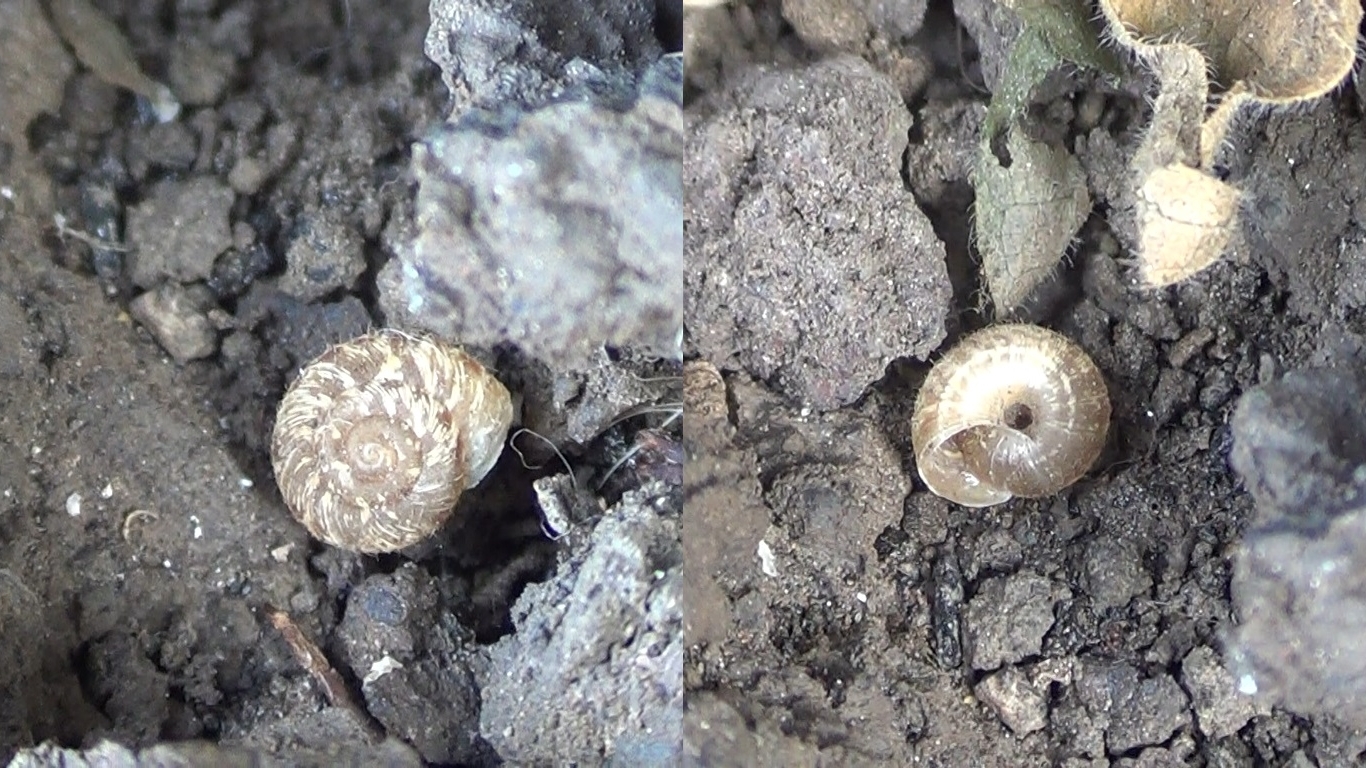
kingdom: Animalia
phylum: Mollusca
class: Gastropoda
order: Stylommatophora
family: Geomitridae
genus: Xerotricha
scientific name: Xerotricha conspurcata
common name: Snail
